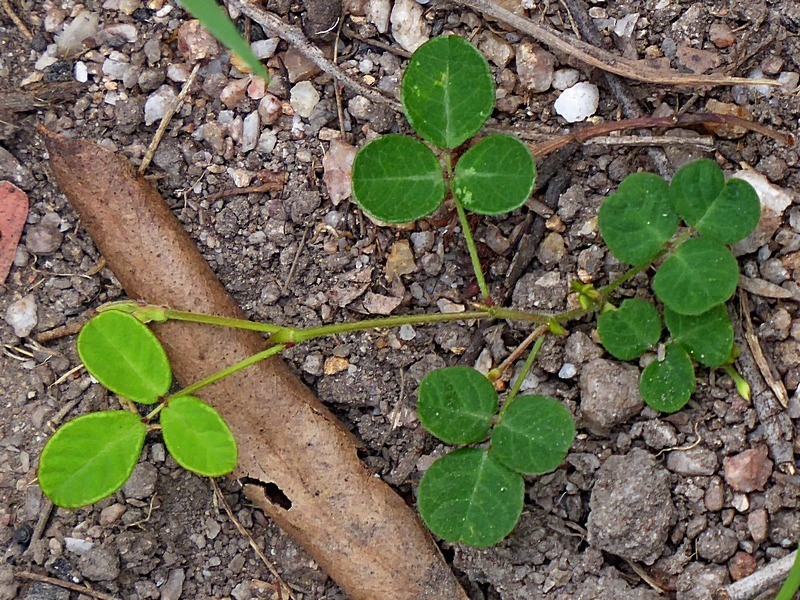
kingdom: Plantae
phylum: Tracheophyta
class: Magnoliopsida
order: Fabales
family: Fabaceae
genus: Pullenia
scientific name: Pullenia gunnii
